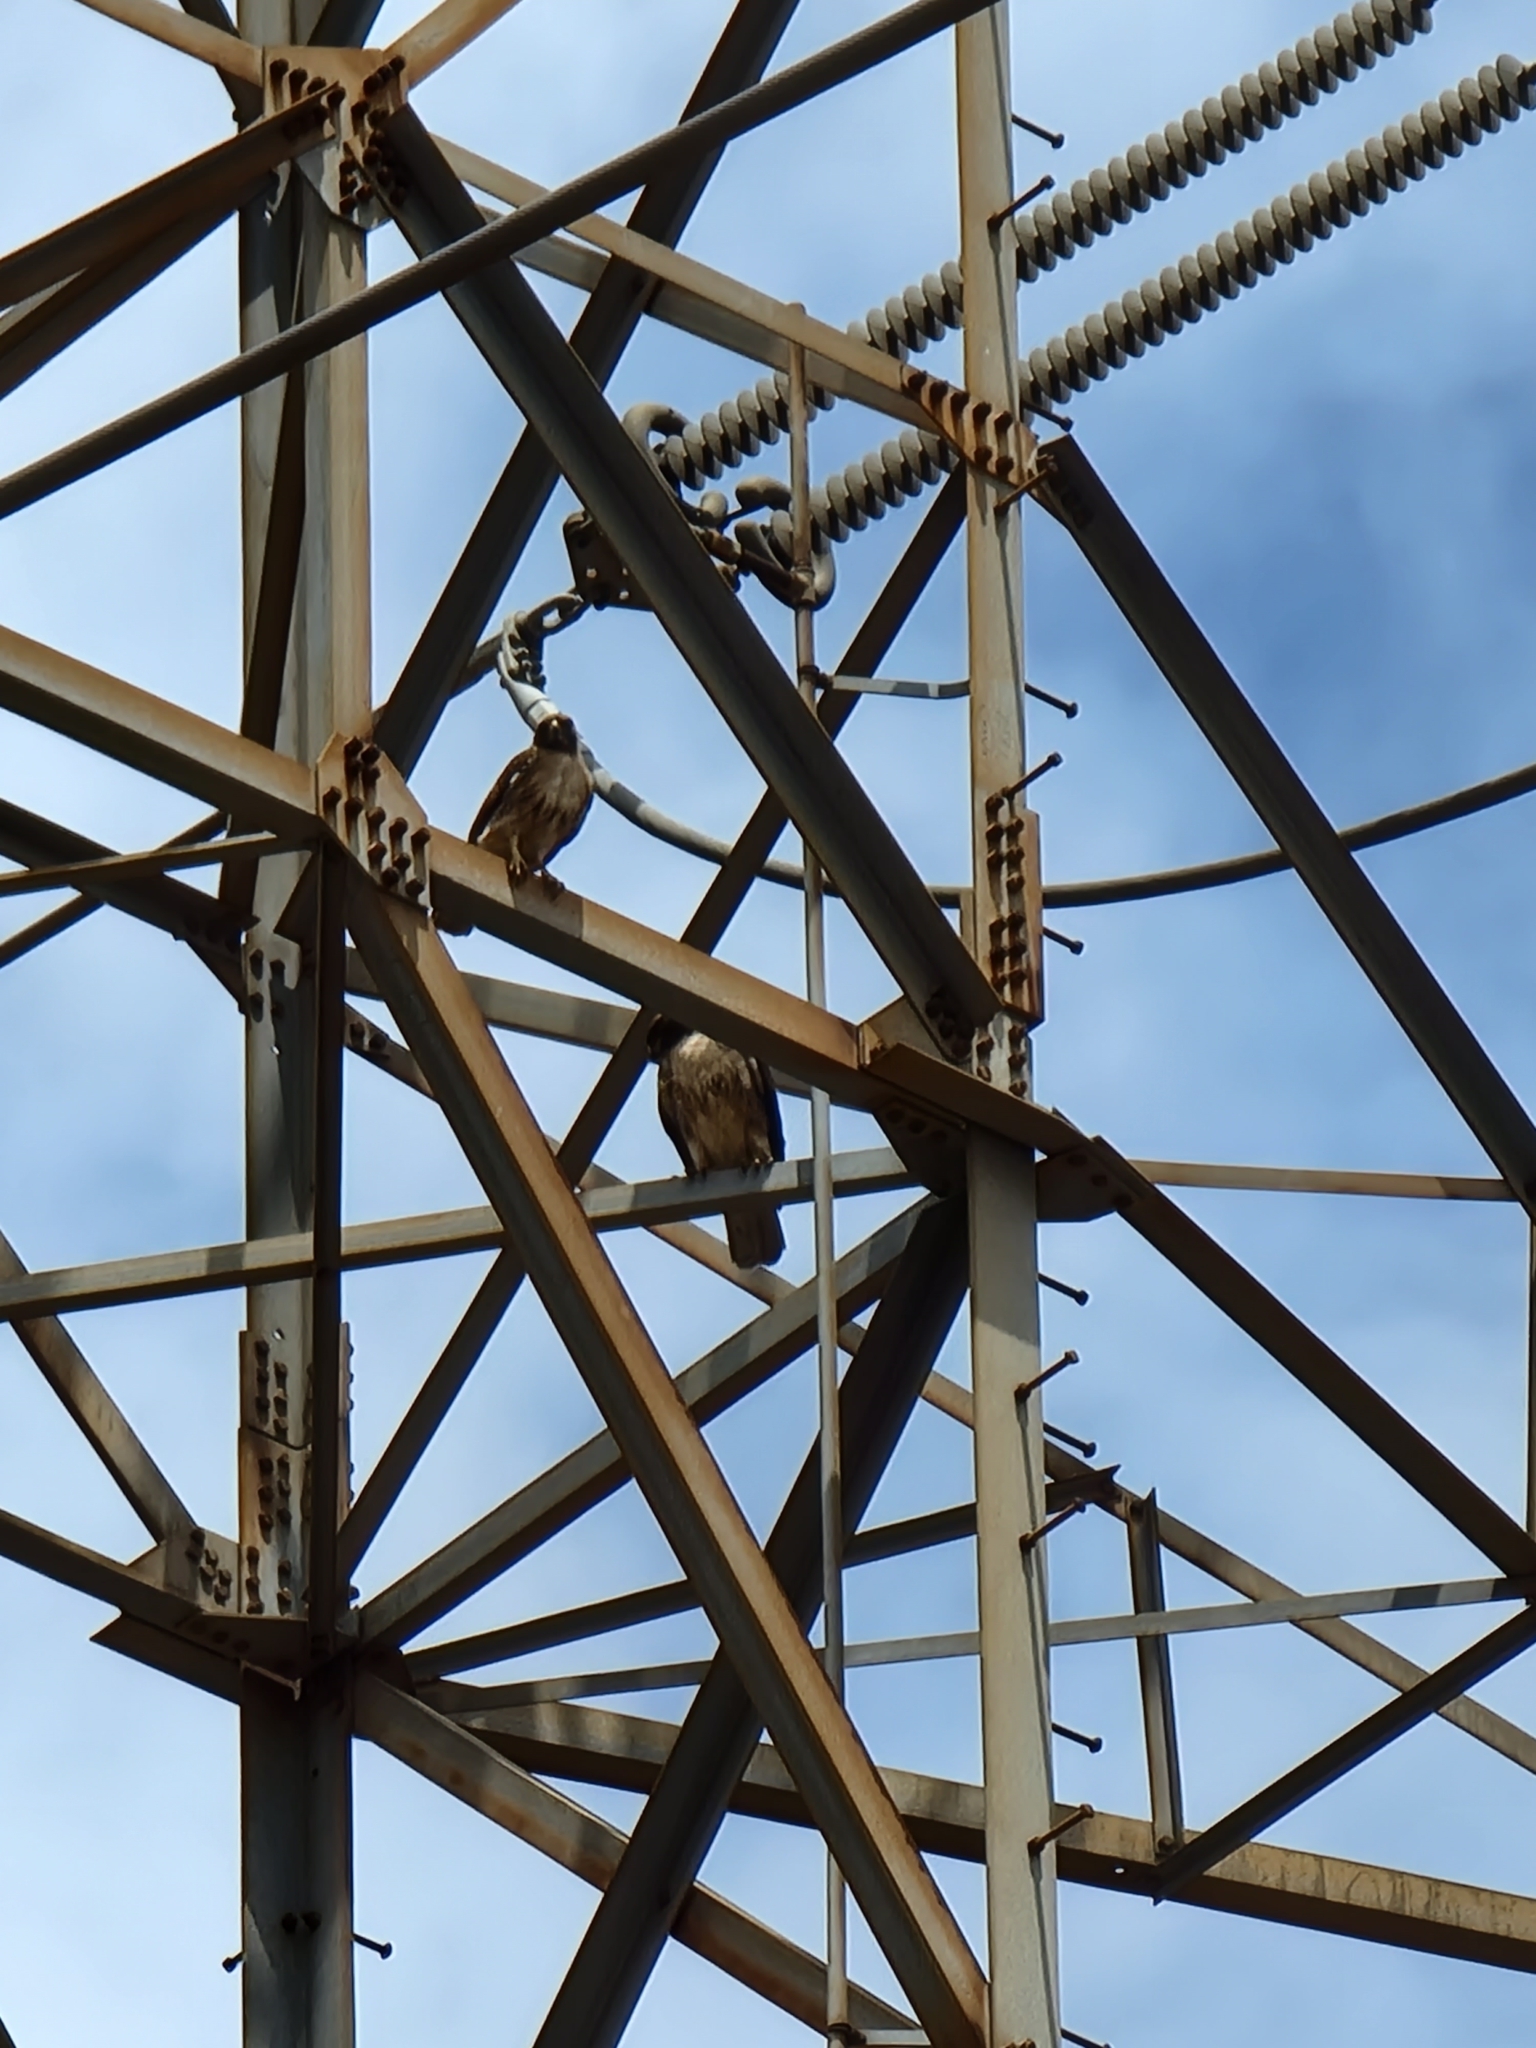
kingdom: Animalia
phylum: Chordata
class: Aves
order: Accipitriformes
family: Accipitridae
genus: Buteo
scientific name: Buteo jamaicensis
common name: Red-tailed hawk
